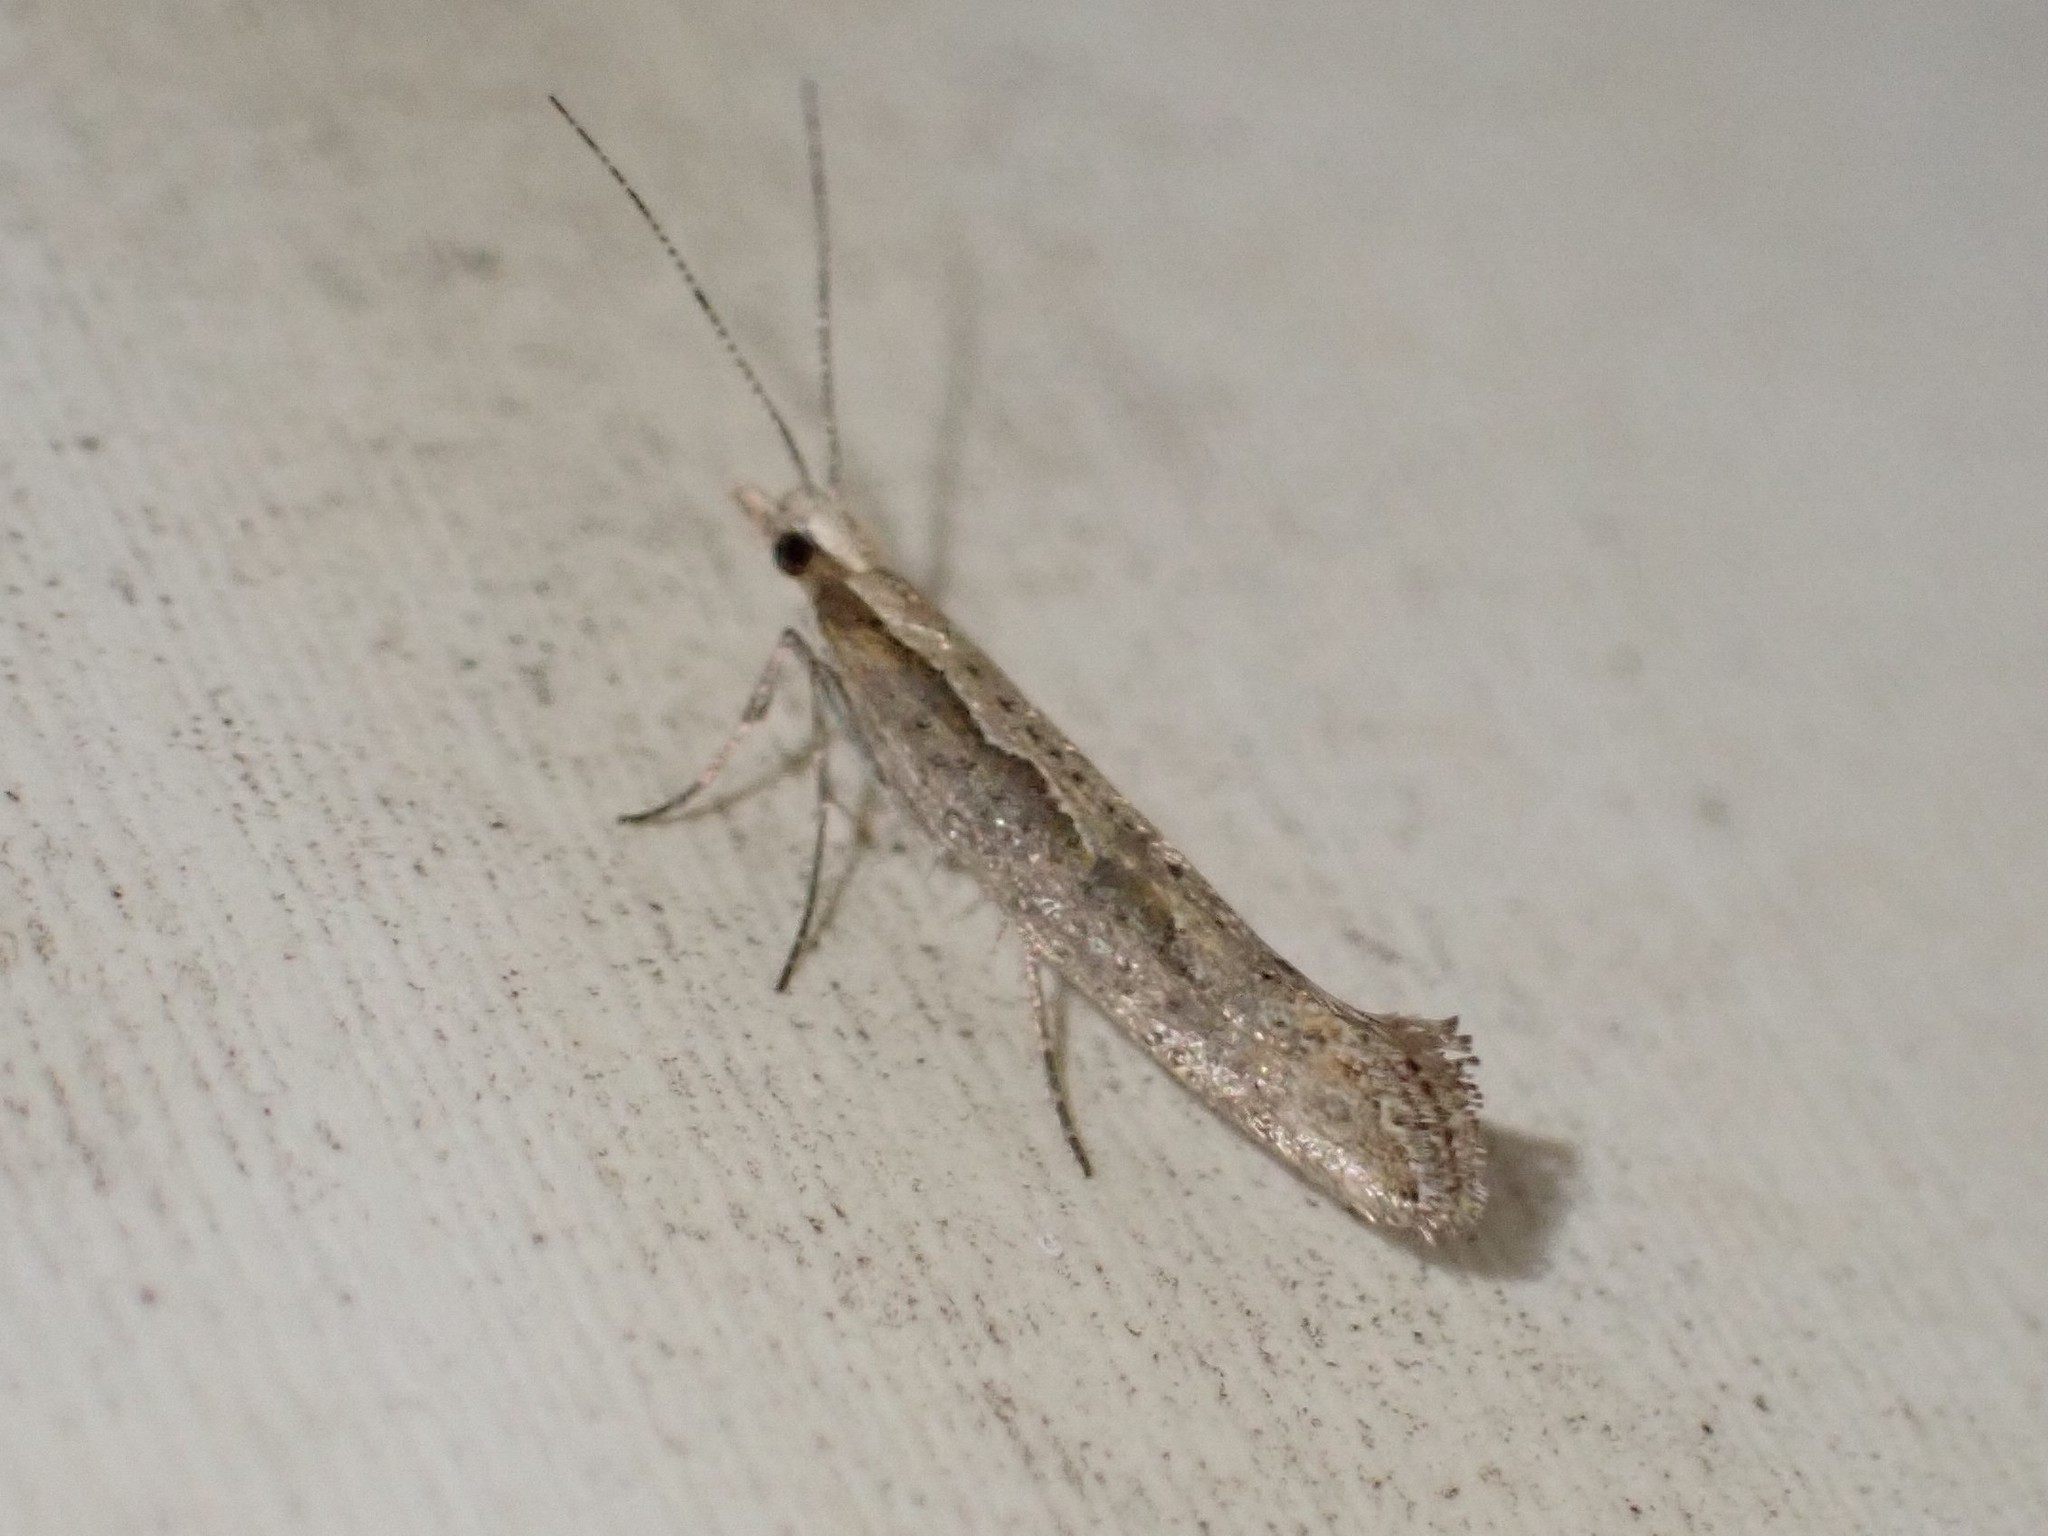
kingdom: Animalia
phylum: Arthropoda
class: Insecta
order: Lepidoptera
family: Plutellidae
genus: Plutella
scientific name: Plutella xylostella
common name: Diamond-back moth
